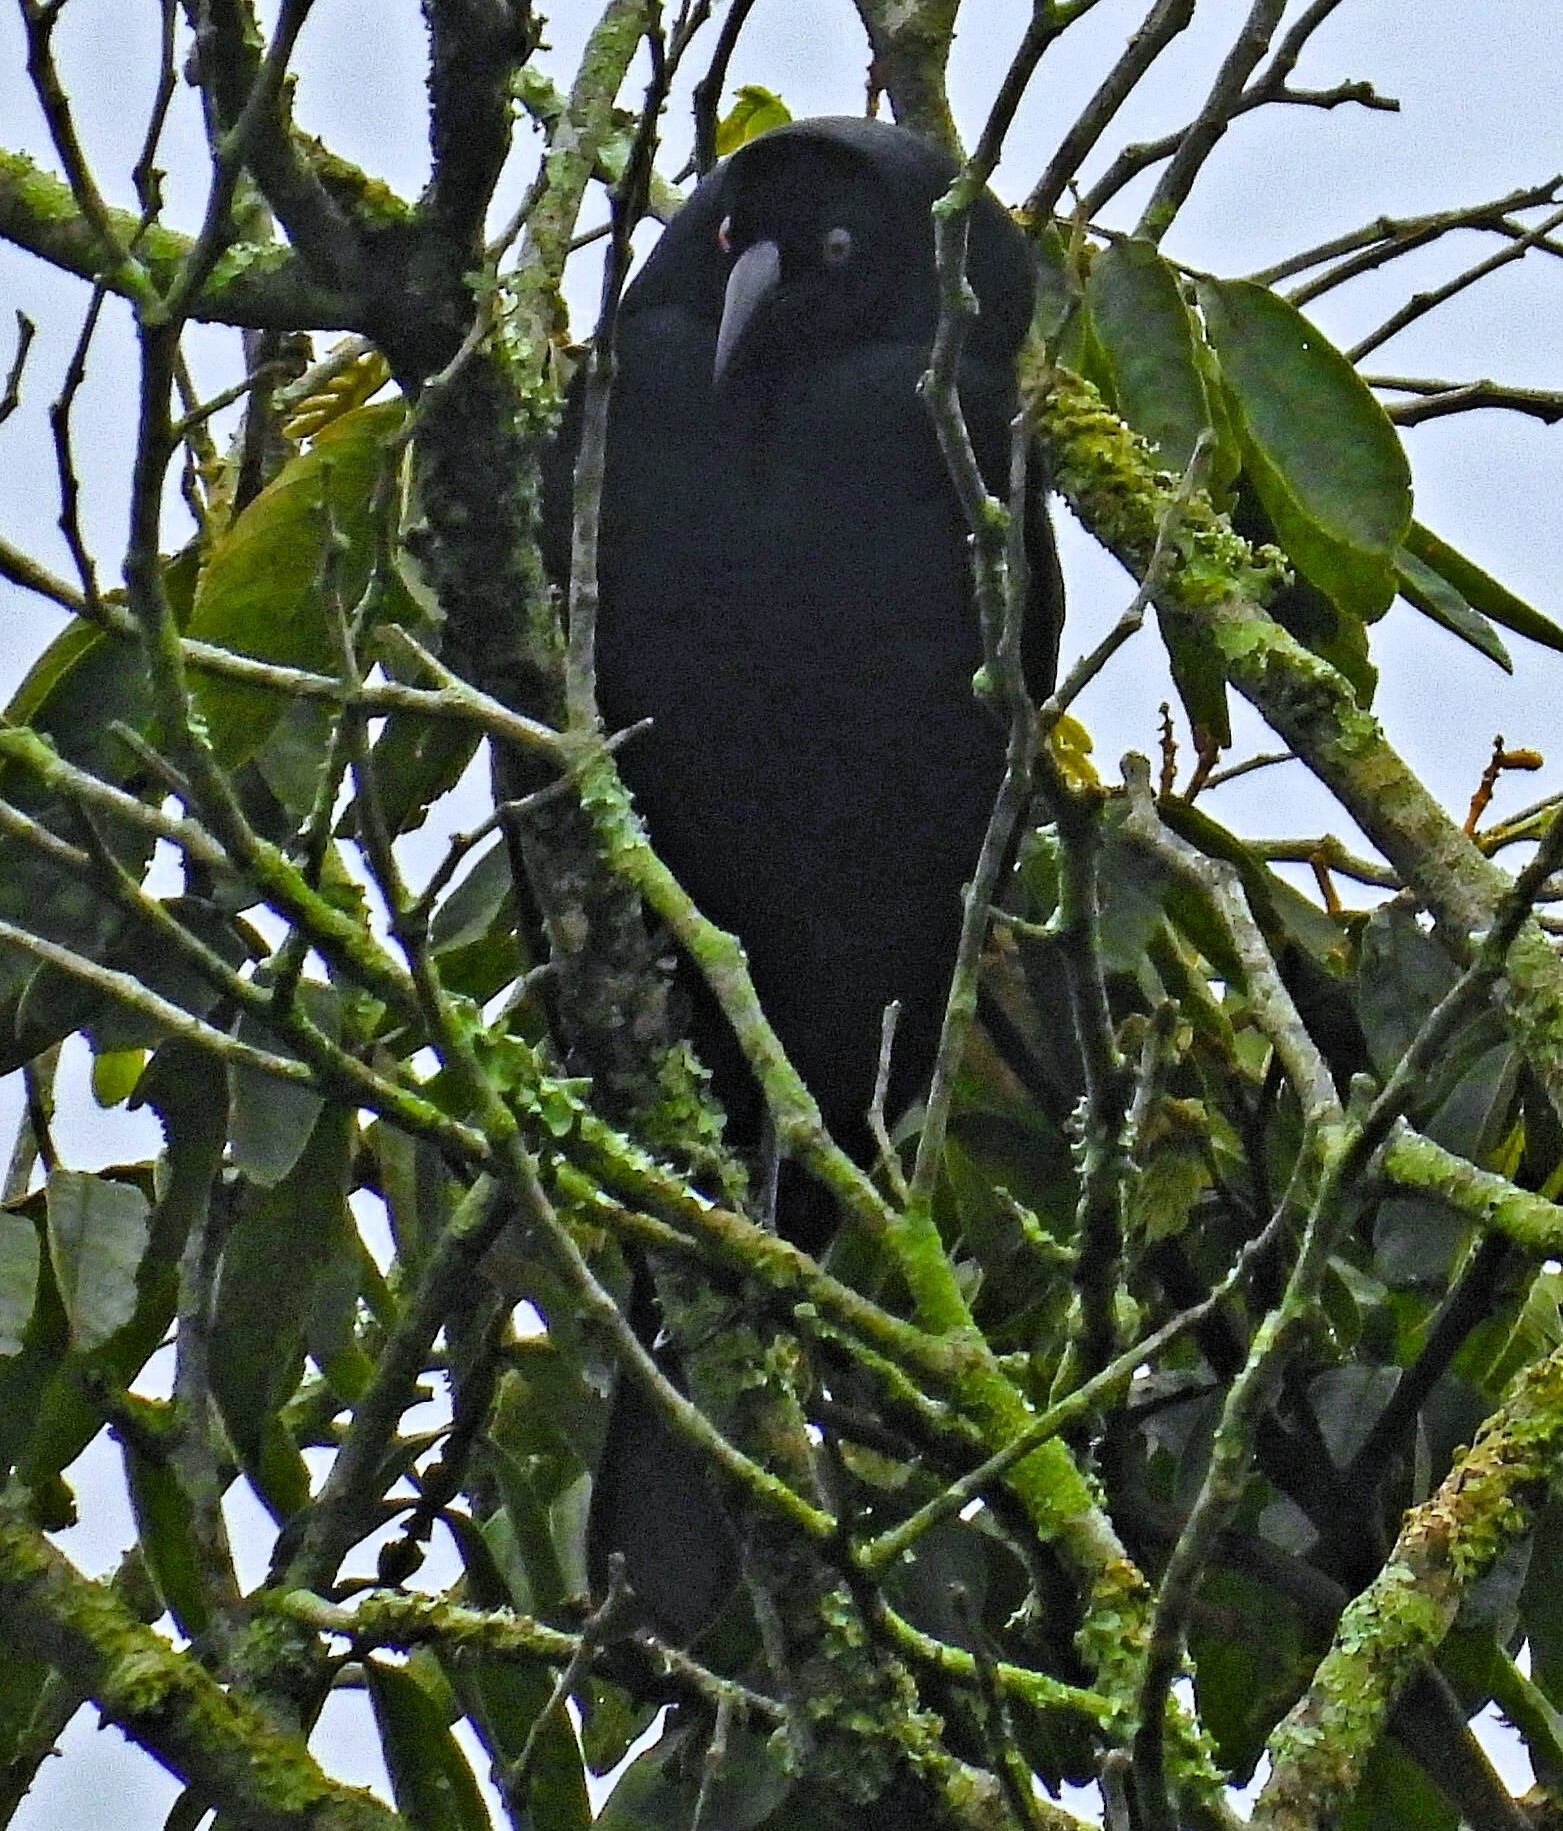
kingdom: Animalia
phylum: Chordata
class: Aves
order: Passeriformes
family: Icteridae
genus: Molothrus
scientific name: Molothrus oryzivorus
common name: Giant cowbird
